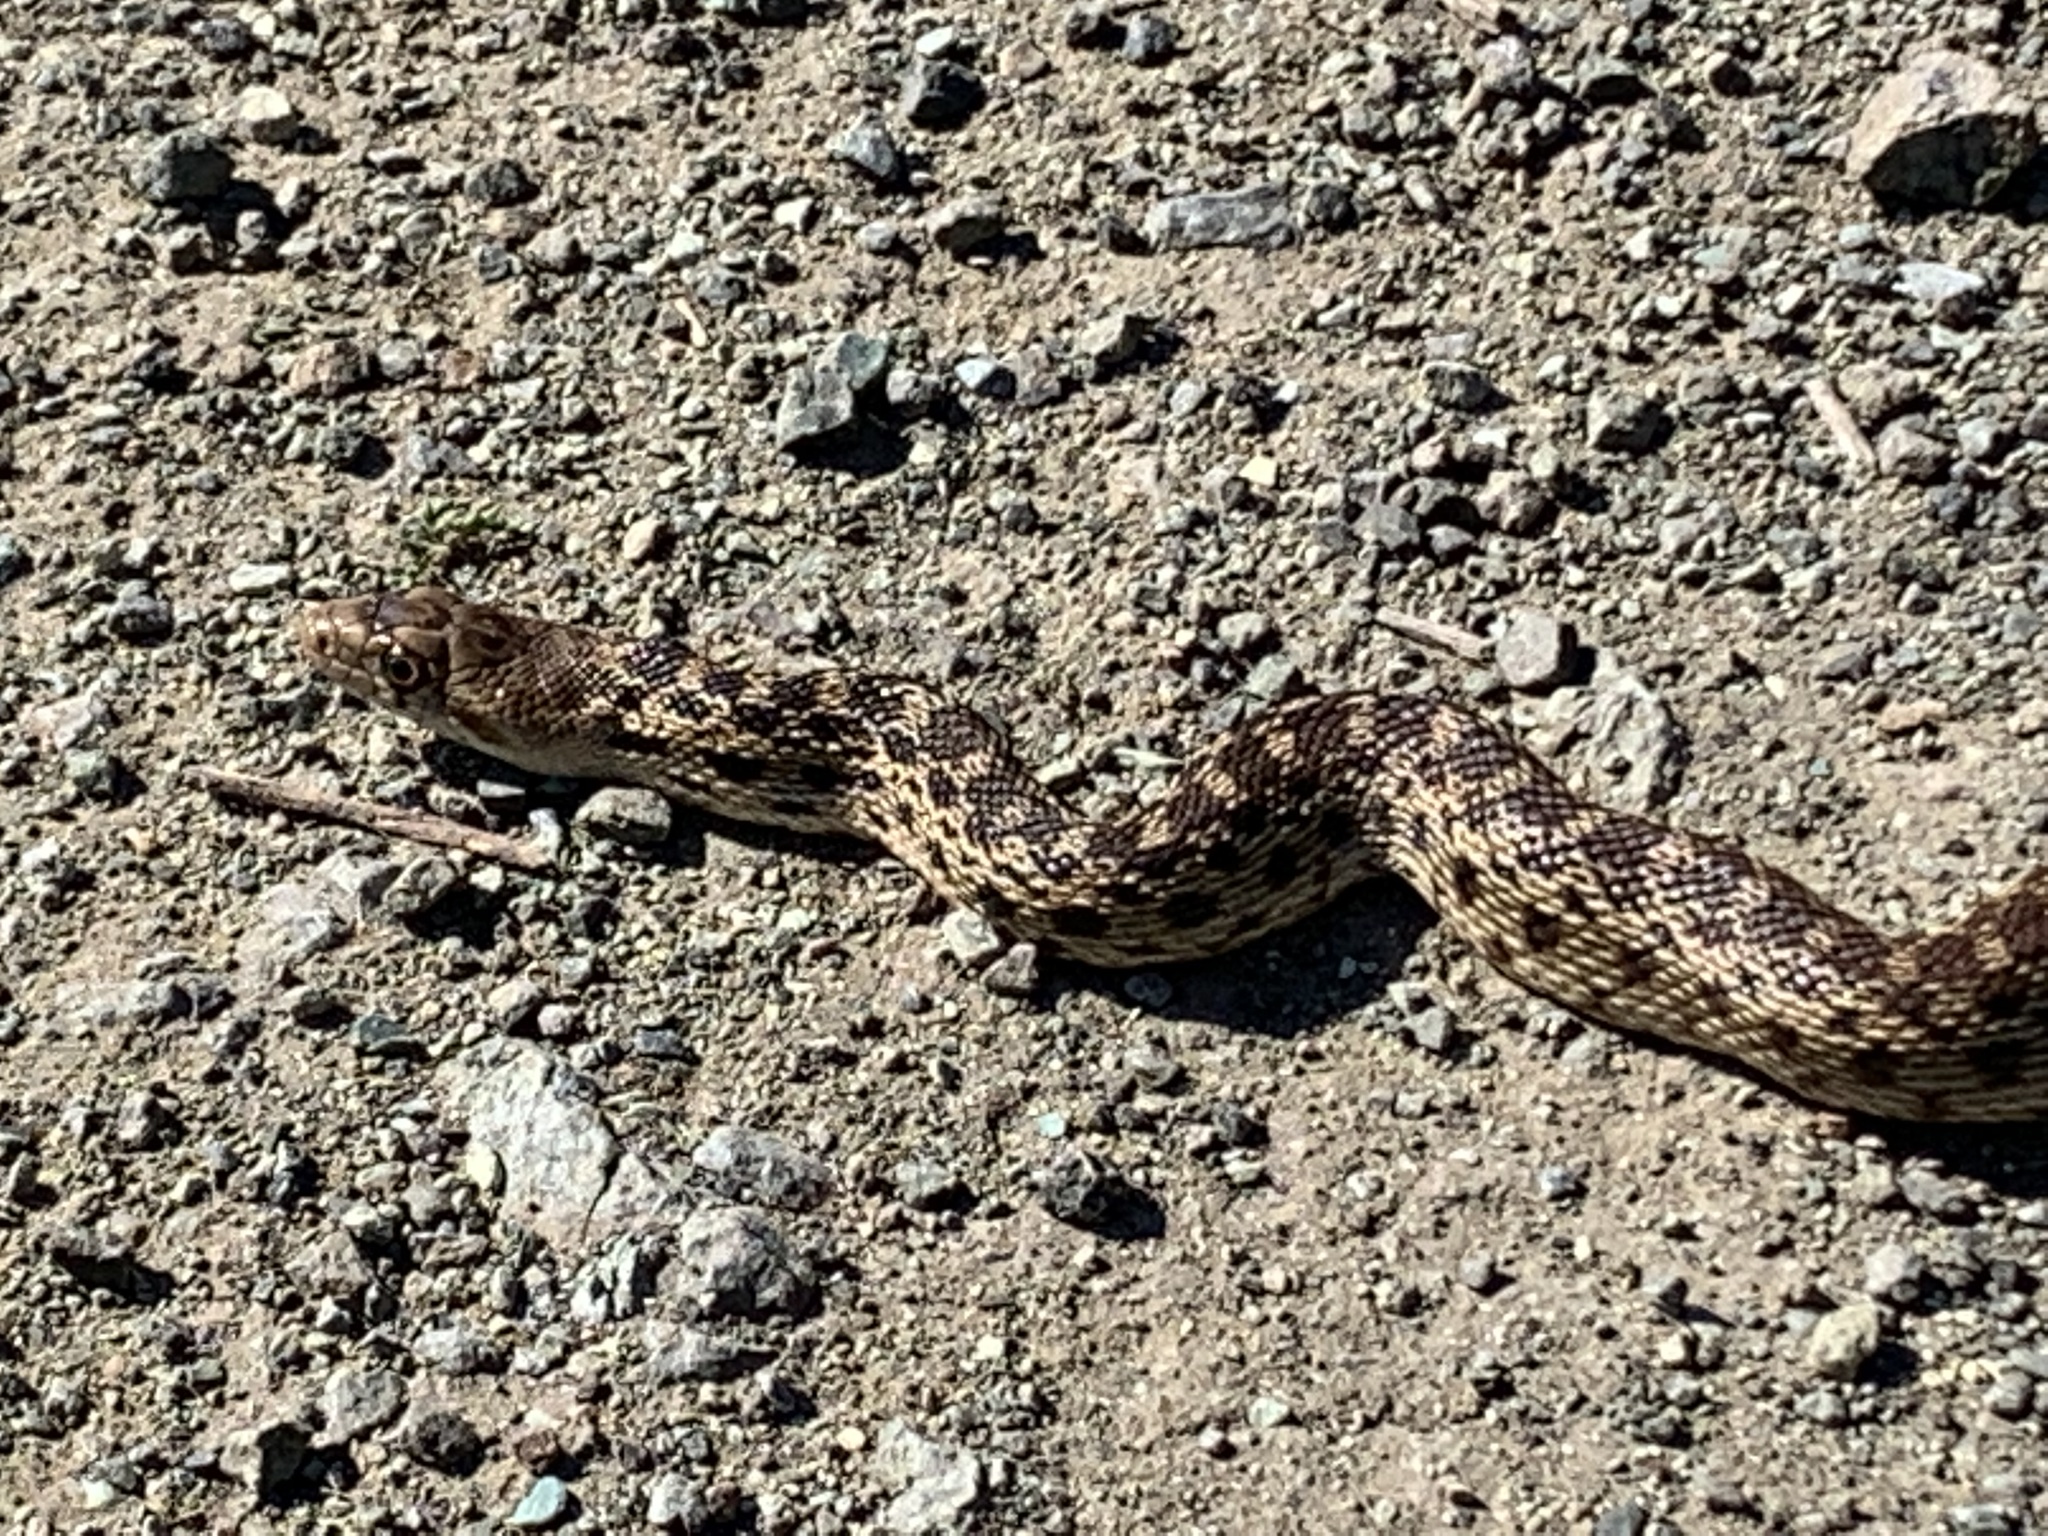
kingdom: Animalia
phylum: Chordata
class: Squamata
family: Colubridae
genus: Pituophis
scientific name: Pituophis catenifer
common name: Gopher snake
